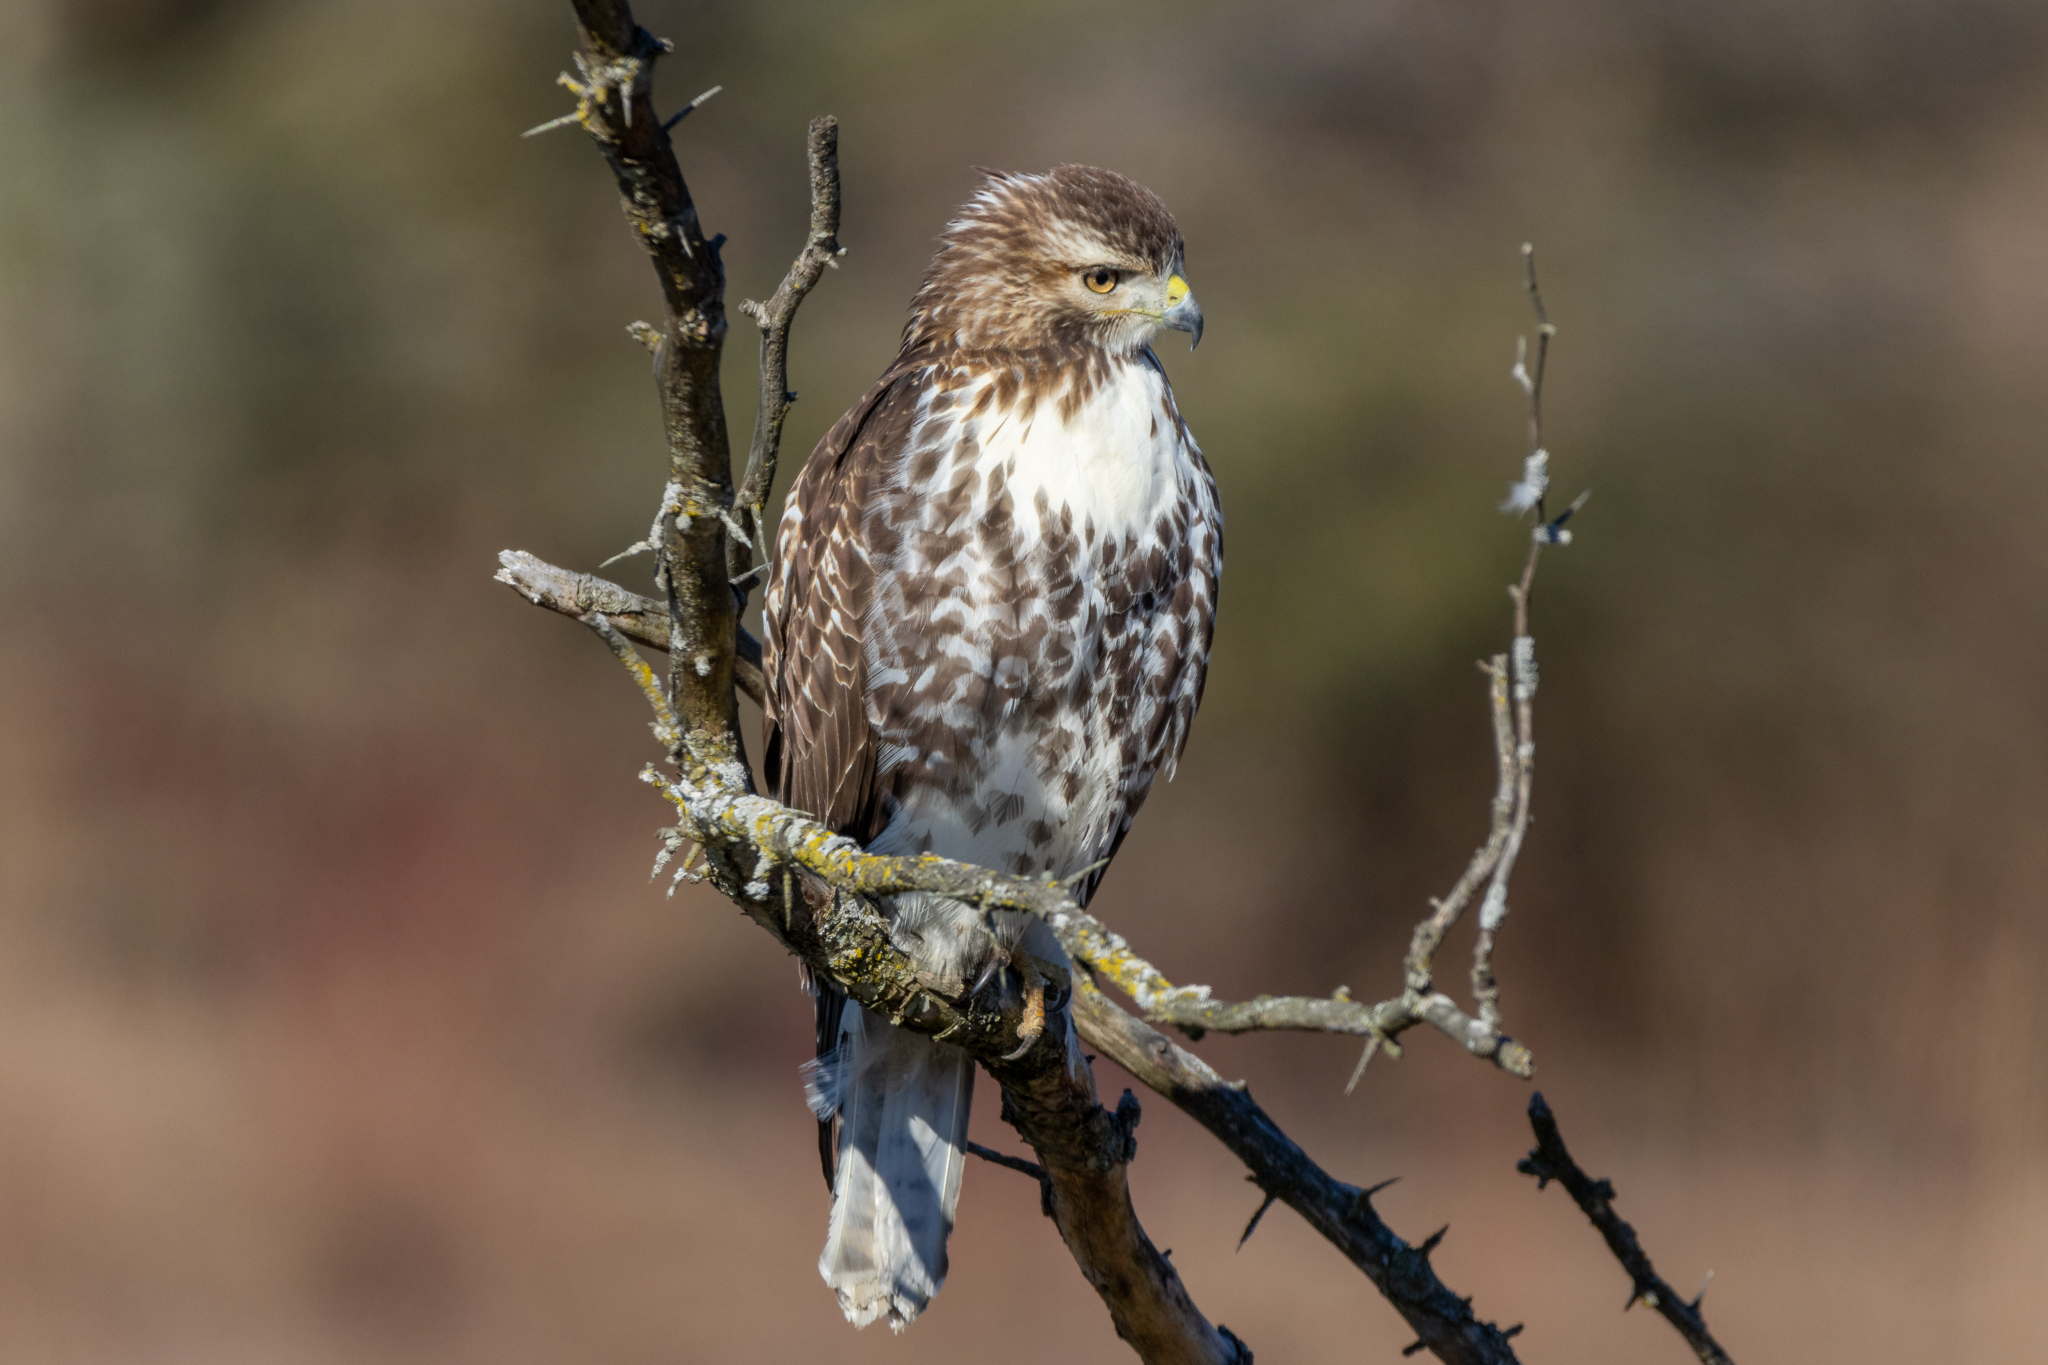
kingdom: Animalia
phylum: Chordata
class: Aves
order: Accipitriformes
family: Accipitridae
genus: Buteo
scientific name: Buteo jamaicensis
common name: Red-tailed hawk
